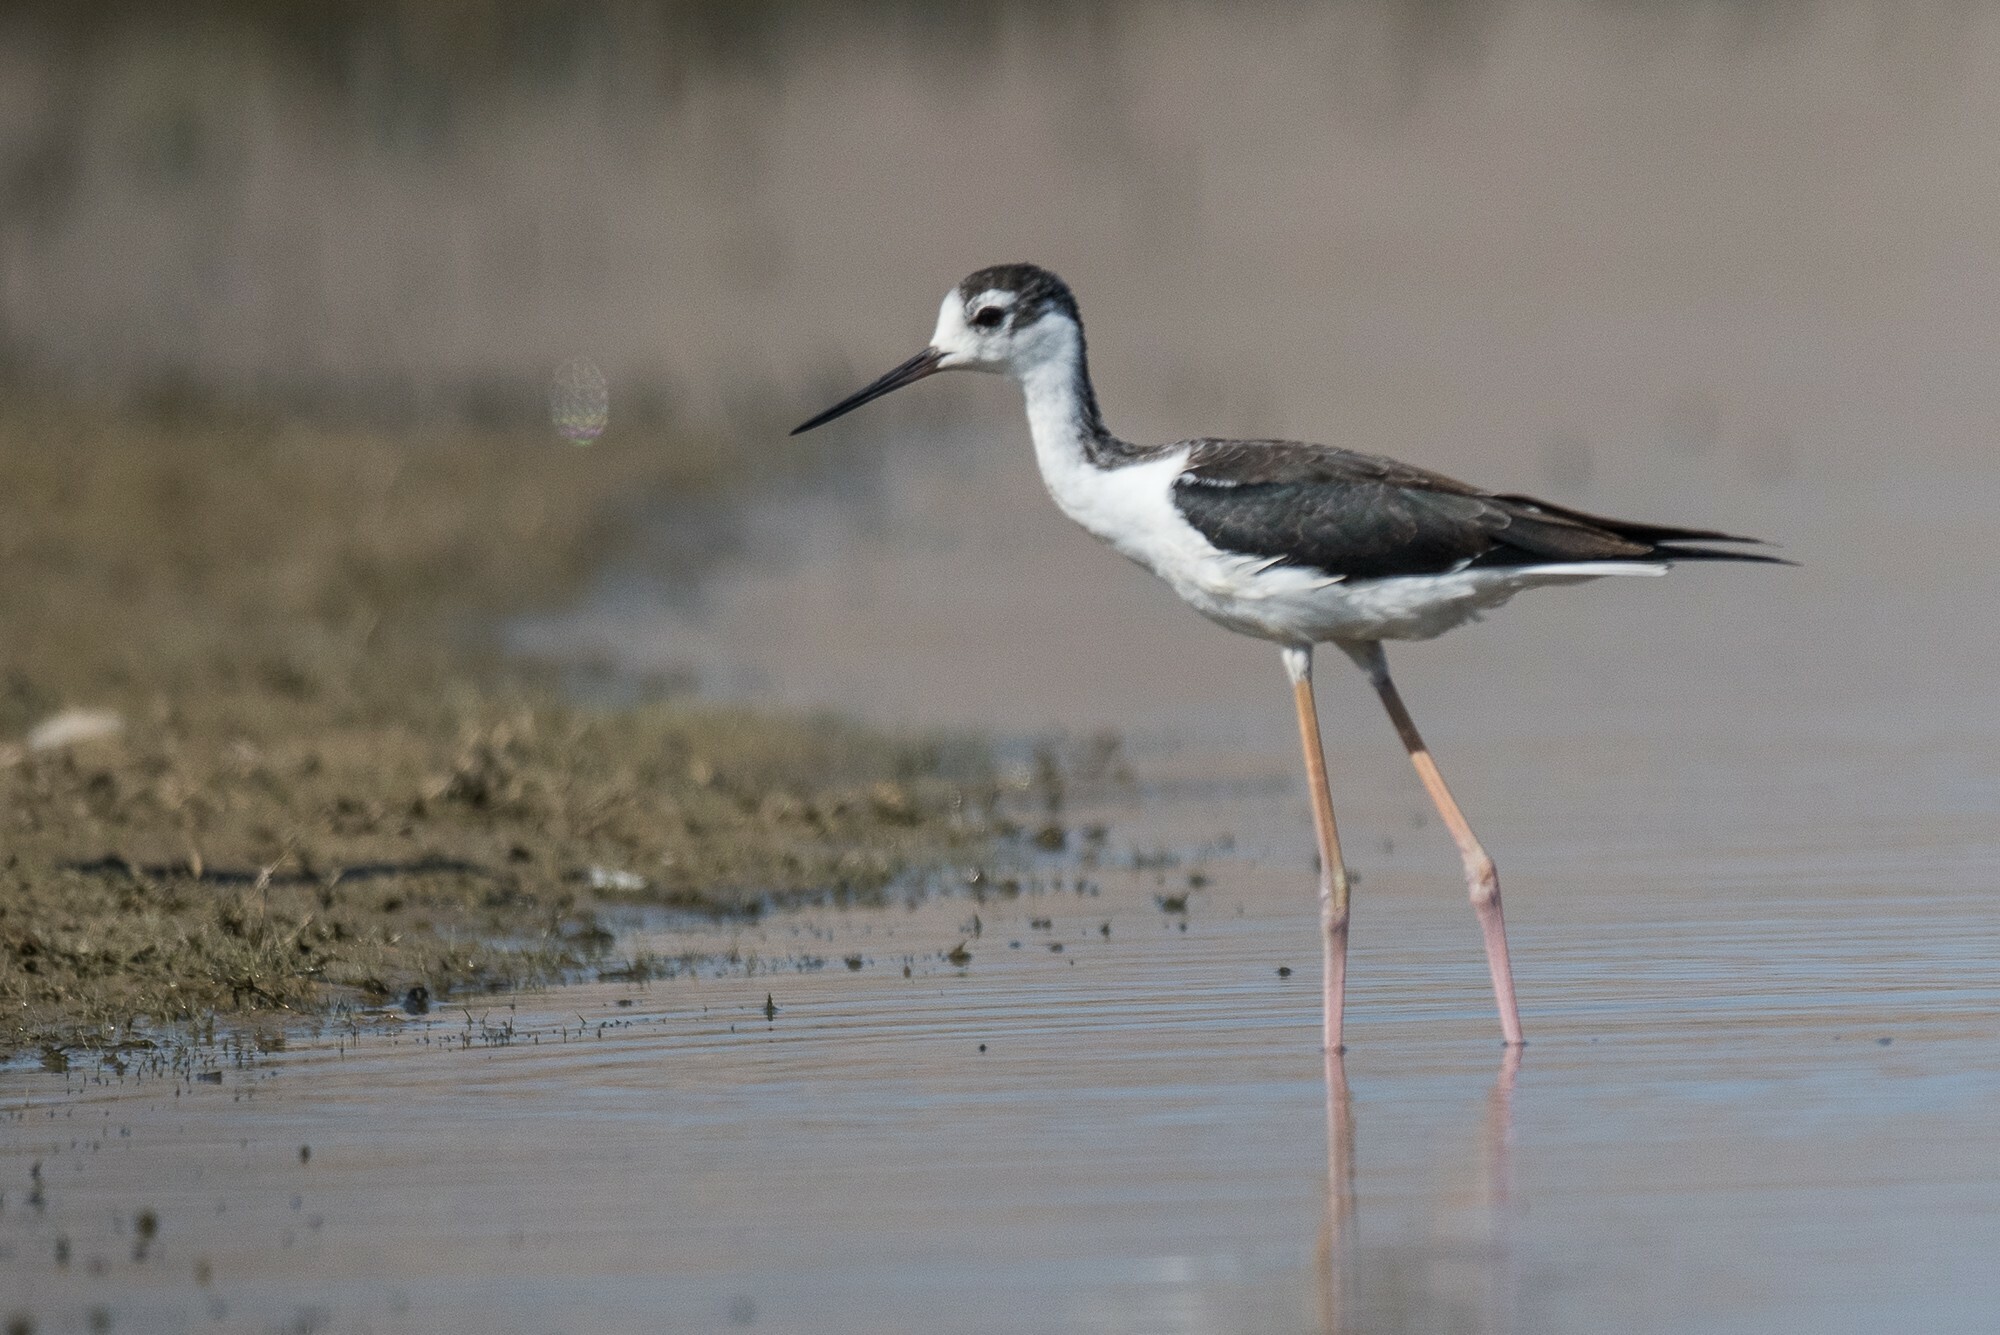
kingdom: Animalia
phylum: Chordata
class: Aves
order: Charadriiformes
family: Recurvirostridae
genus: Himantopus
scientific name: Himantopus mexicanus
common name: Black-necked stilt
